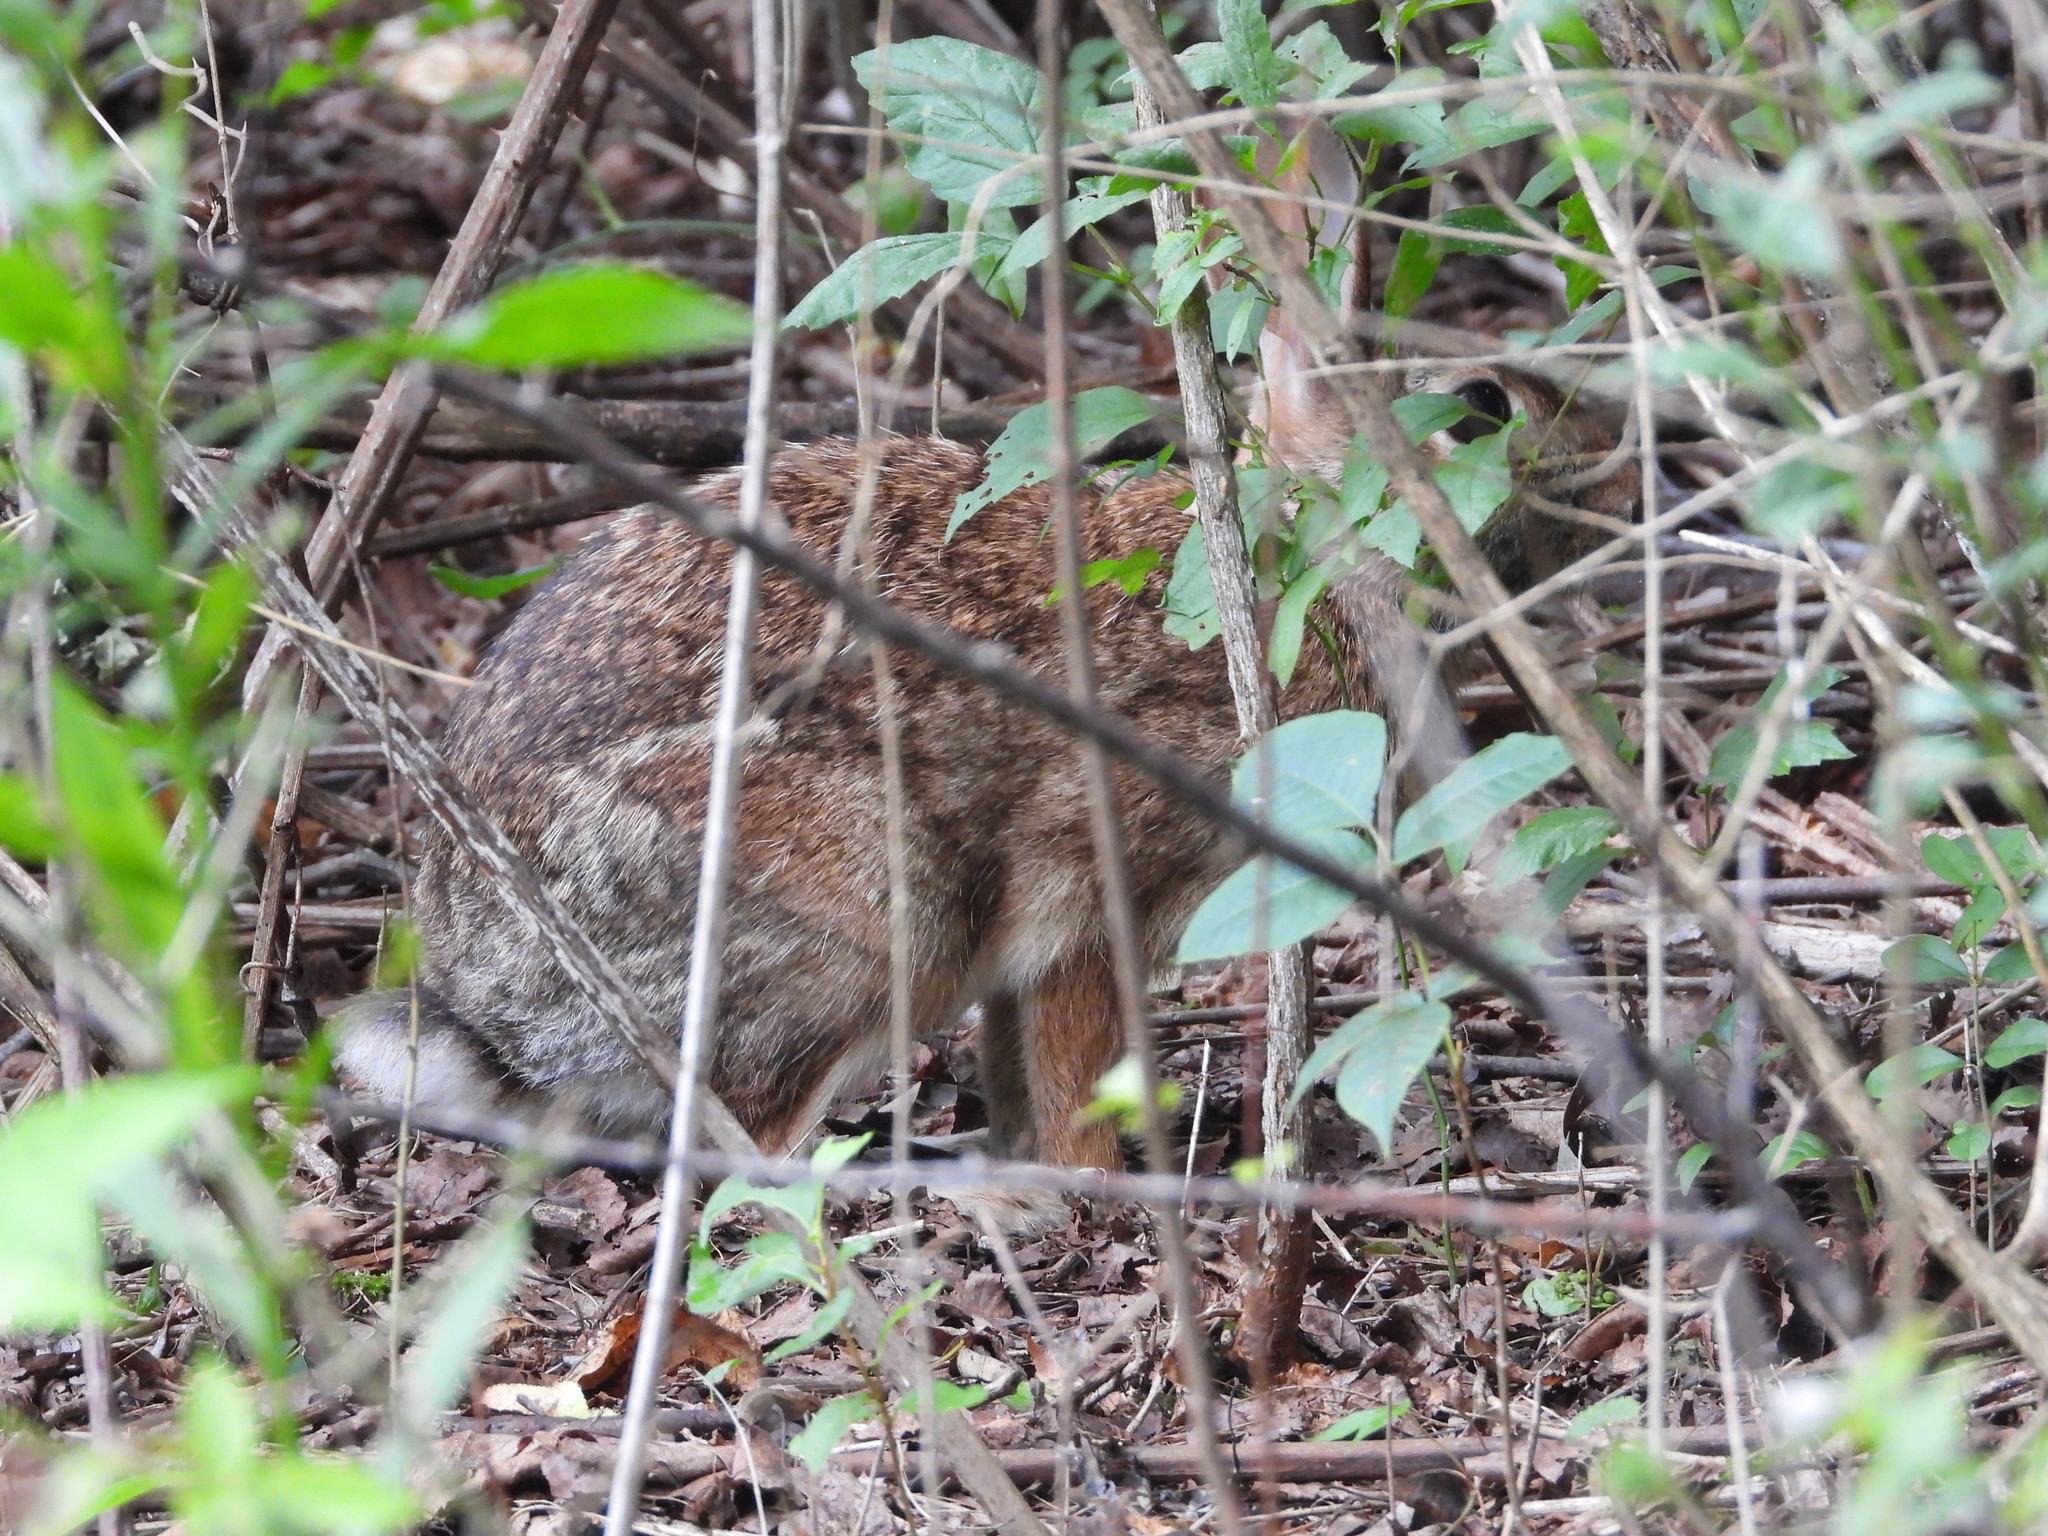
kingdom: Animalia
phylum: Chordata
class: Mammalia
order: Lagomorpha
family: Leporidae
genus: Sylvilagus
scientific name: Sylvilagus floridanus
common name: Eastern cottontail
